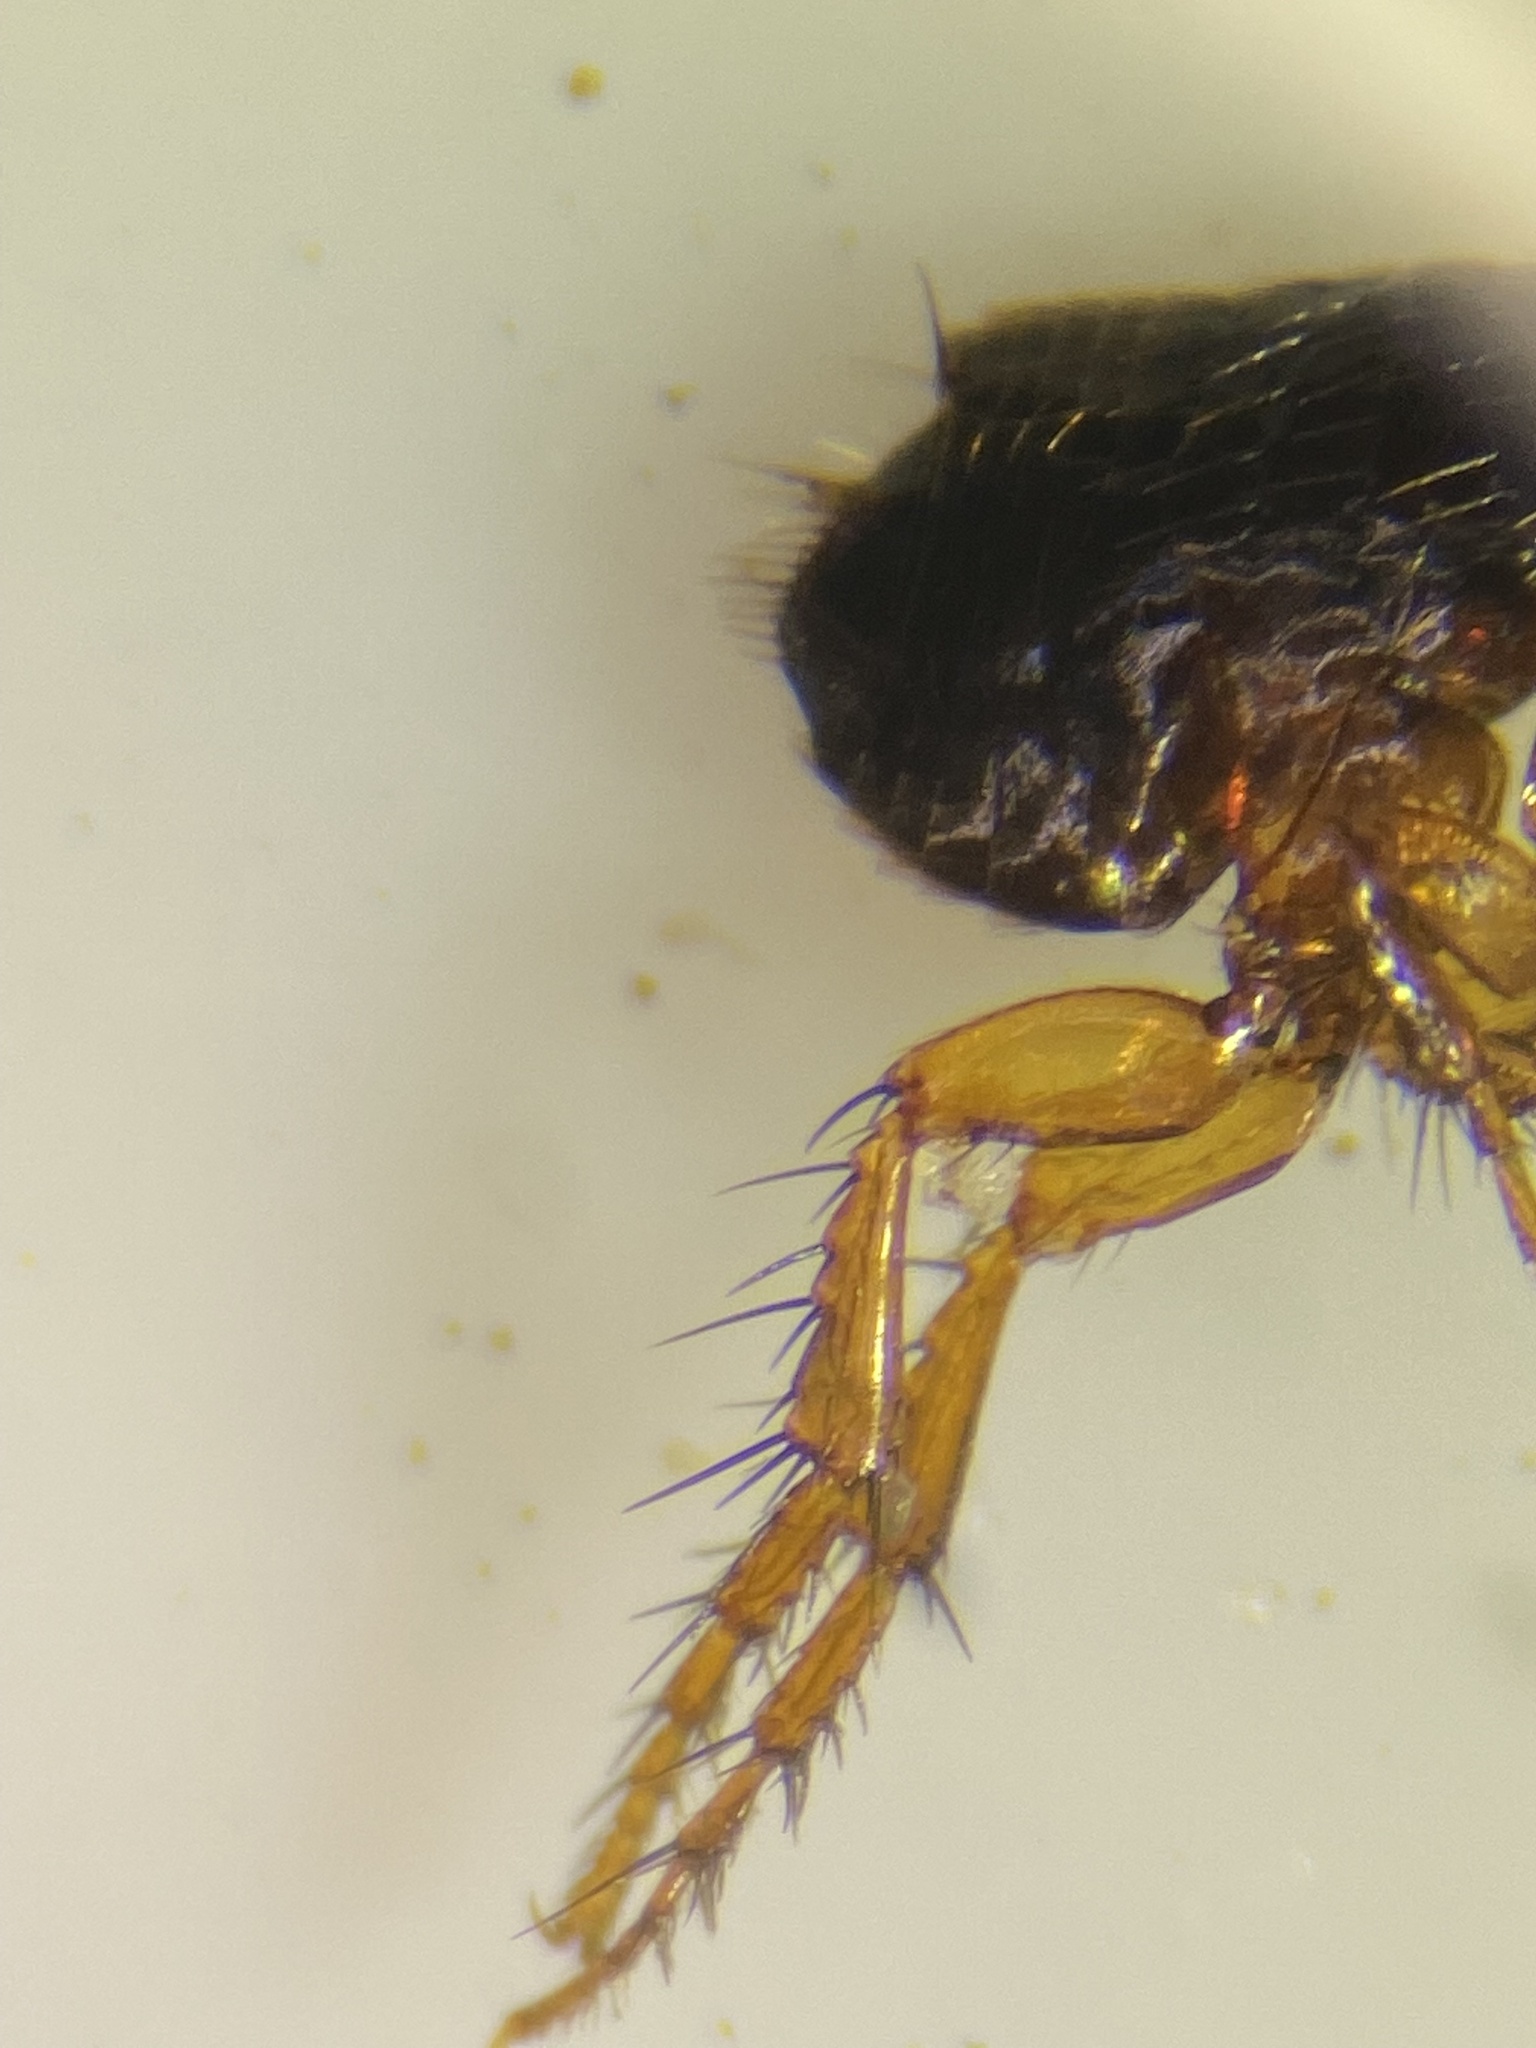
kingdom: Animalia
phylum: Arthropoda
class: Insecta
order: Siphonaptera
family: Pulicidae
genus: Ctenocephalides
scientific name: Ctenocephalides felis
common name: Cat flea
